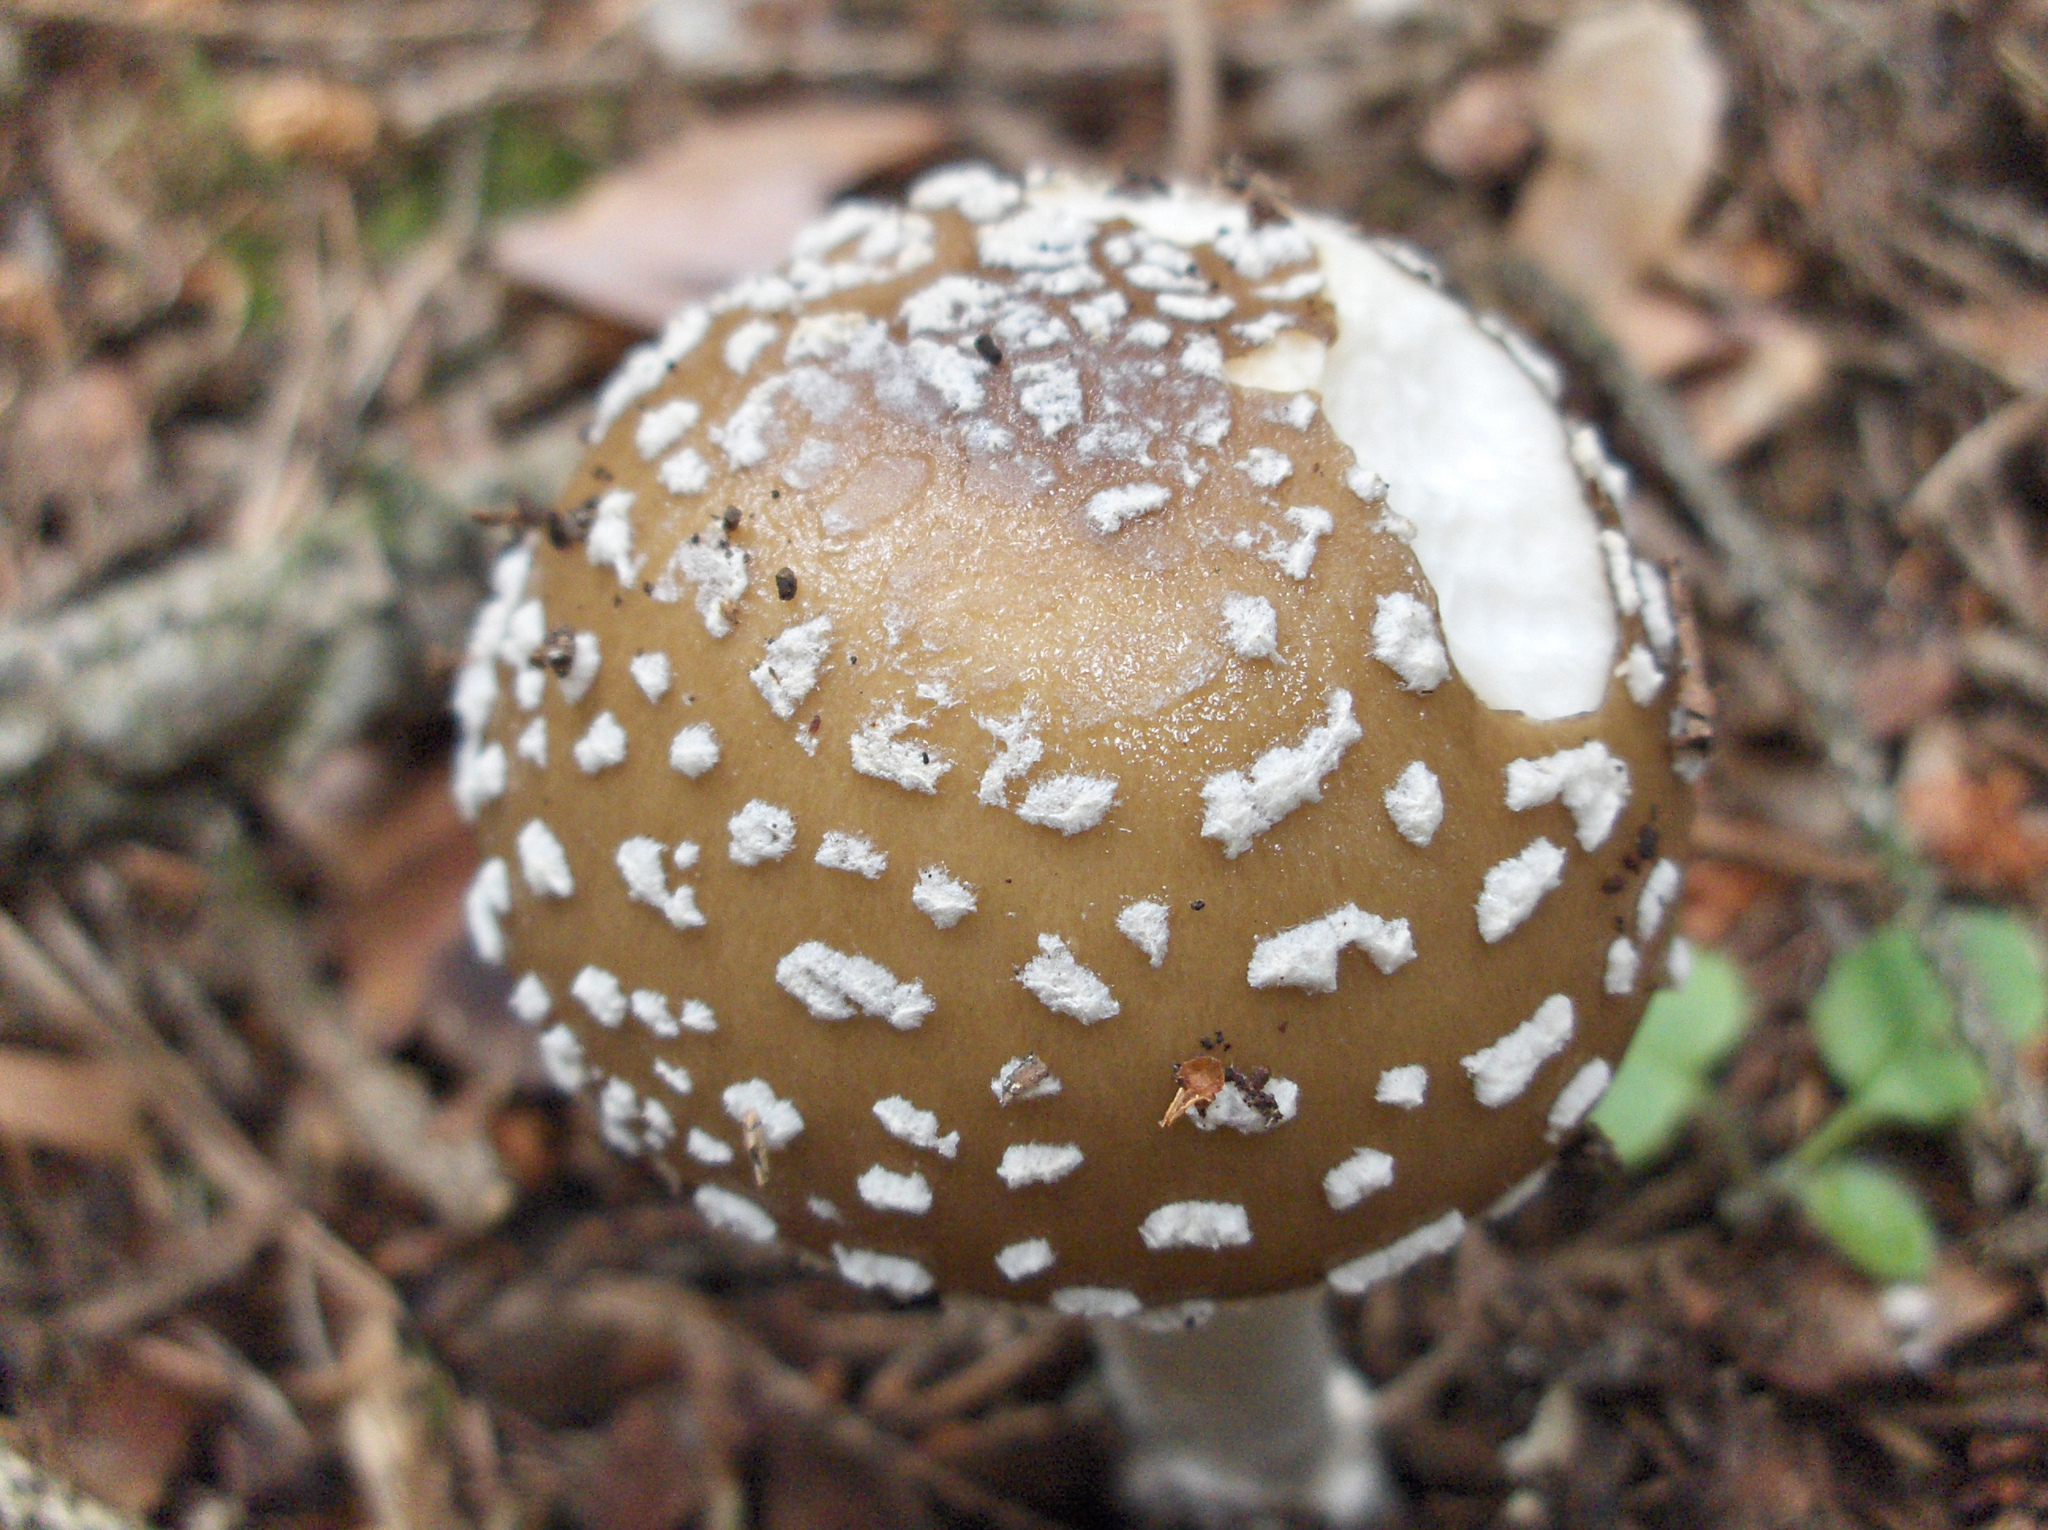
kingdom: Fungi
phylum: Basidiomycota
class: Agaricomycetes
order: Agaricales
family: Amanitaceae
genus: Amanita
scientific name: Amanita pantherina
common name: Panthercap
